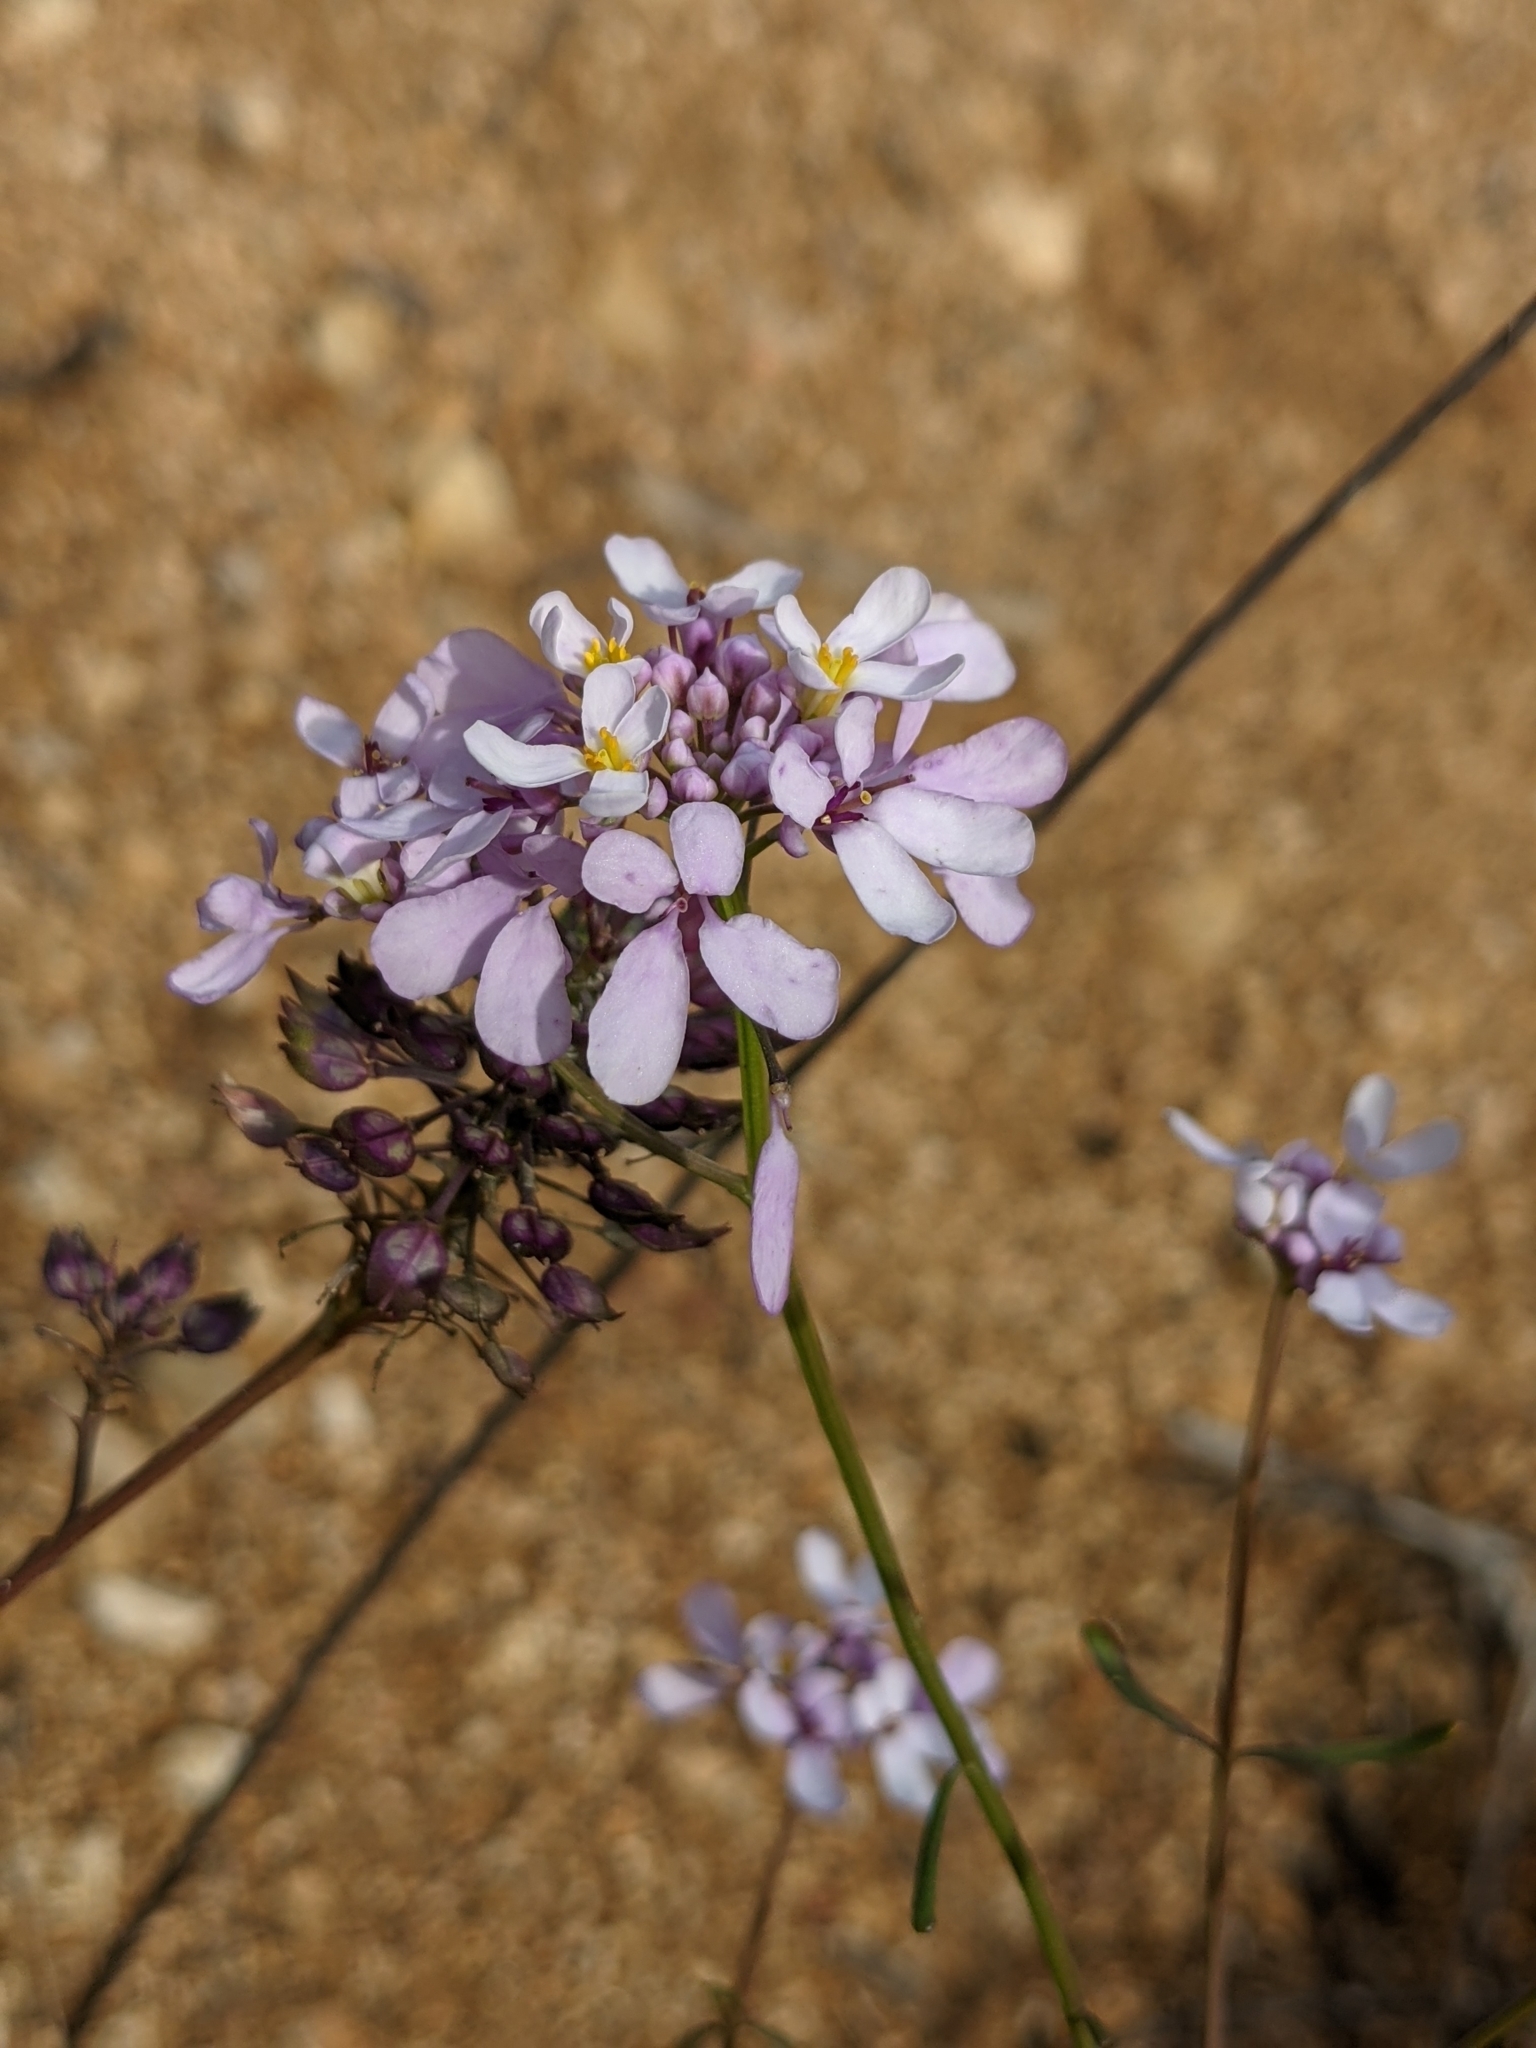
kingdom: Plantae
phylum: Tracheophyta
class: Magnoliopsida
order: Brassicales
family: Brassicaceae
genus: Iberis
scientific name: Iberis linifolia
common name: Candytuft
